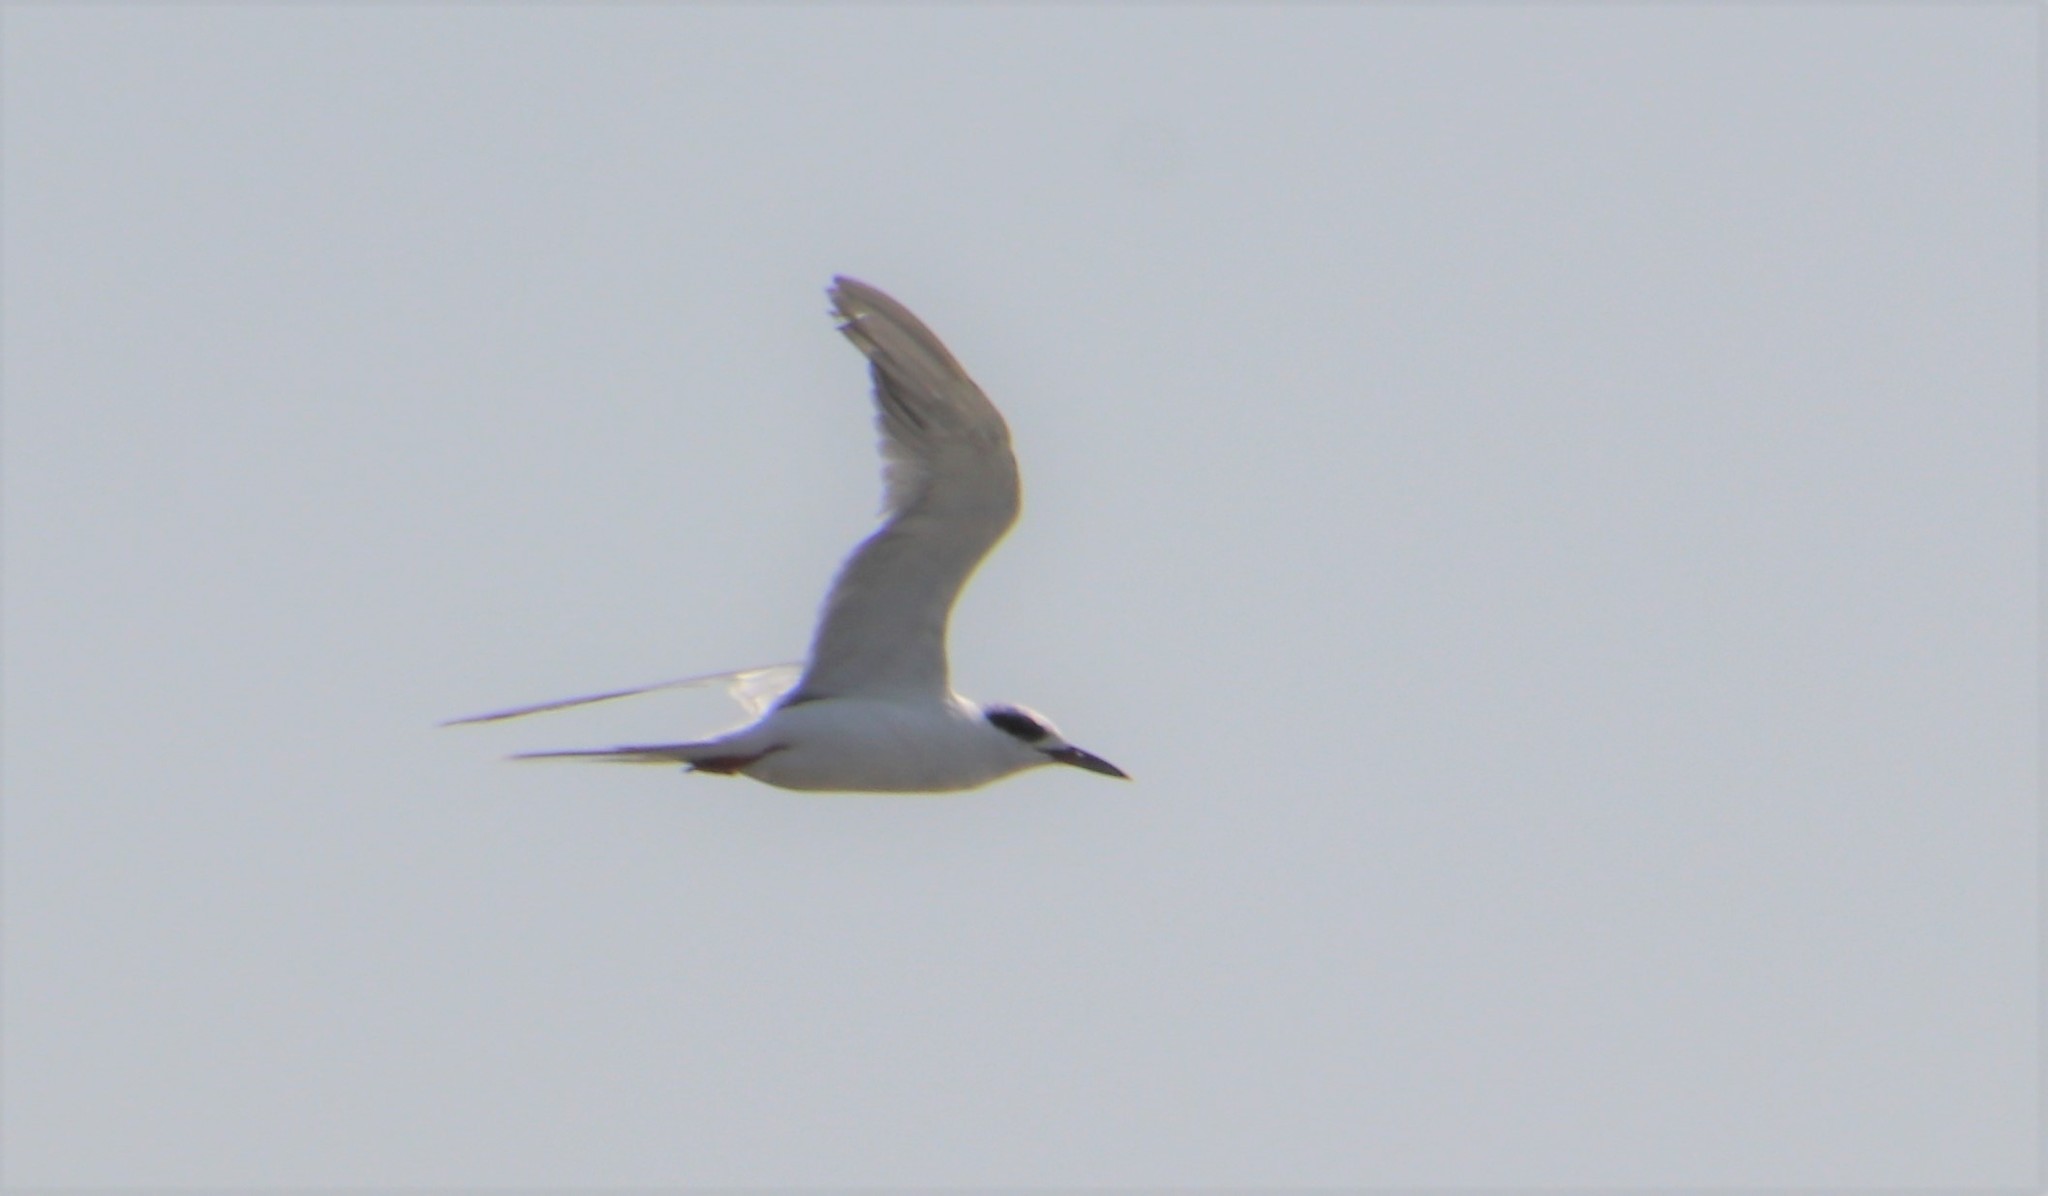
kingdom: Animalia
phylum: Chordata
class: Aves
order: Charadriiformes
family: Laridae
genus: Sterna
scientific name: Sterna forsteri
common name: Forster's tern
